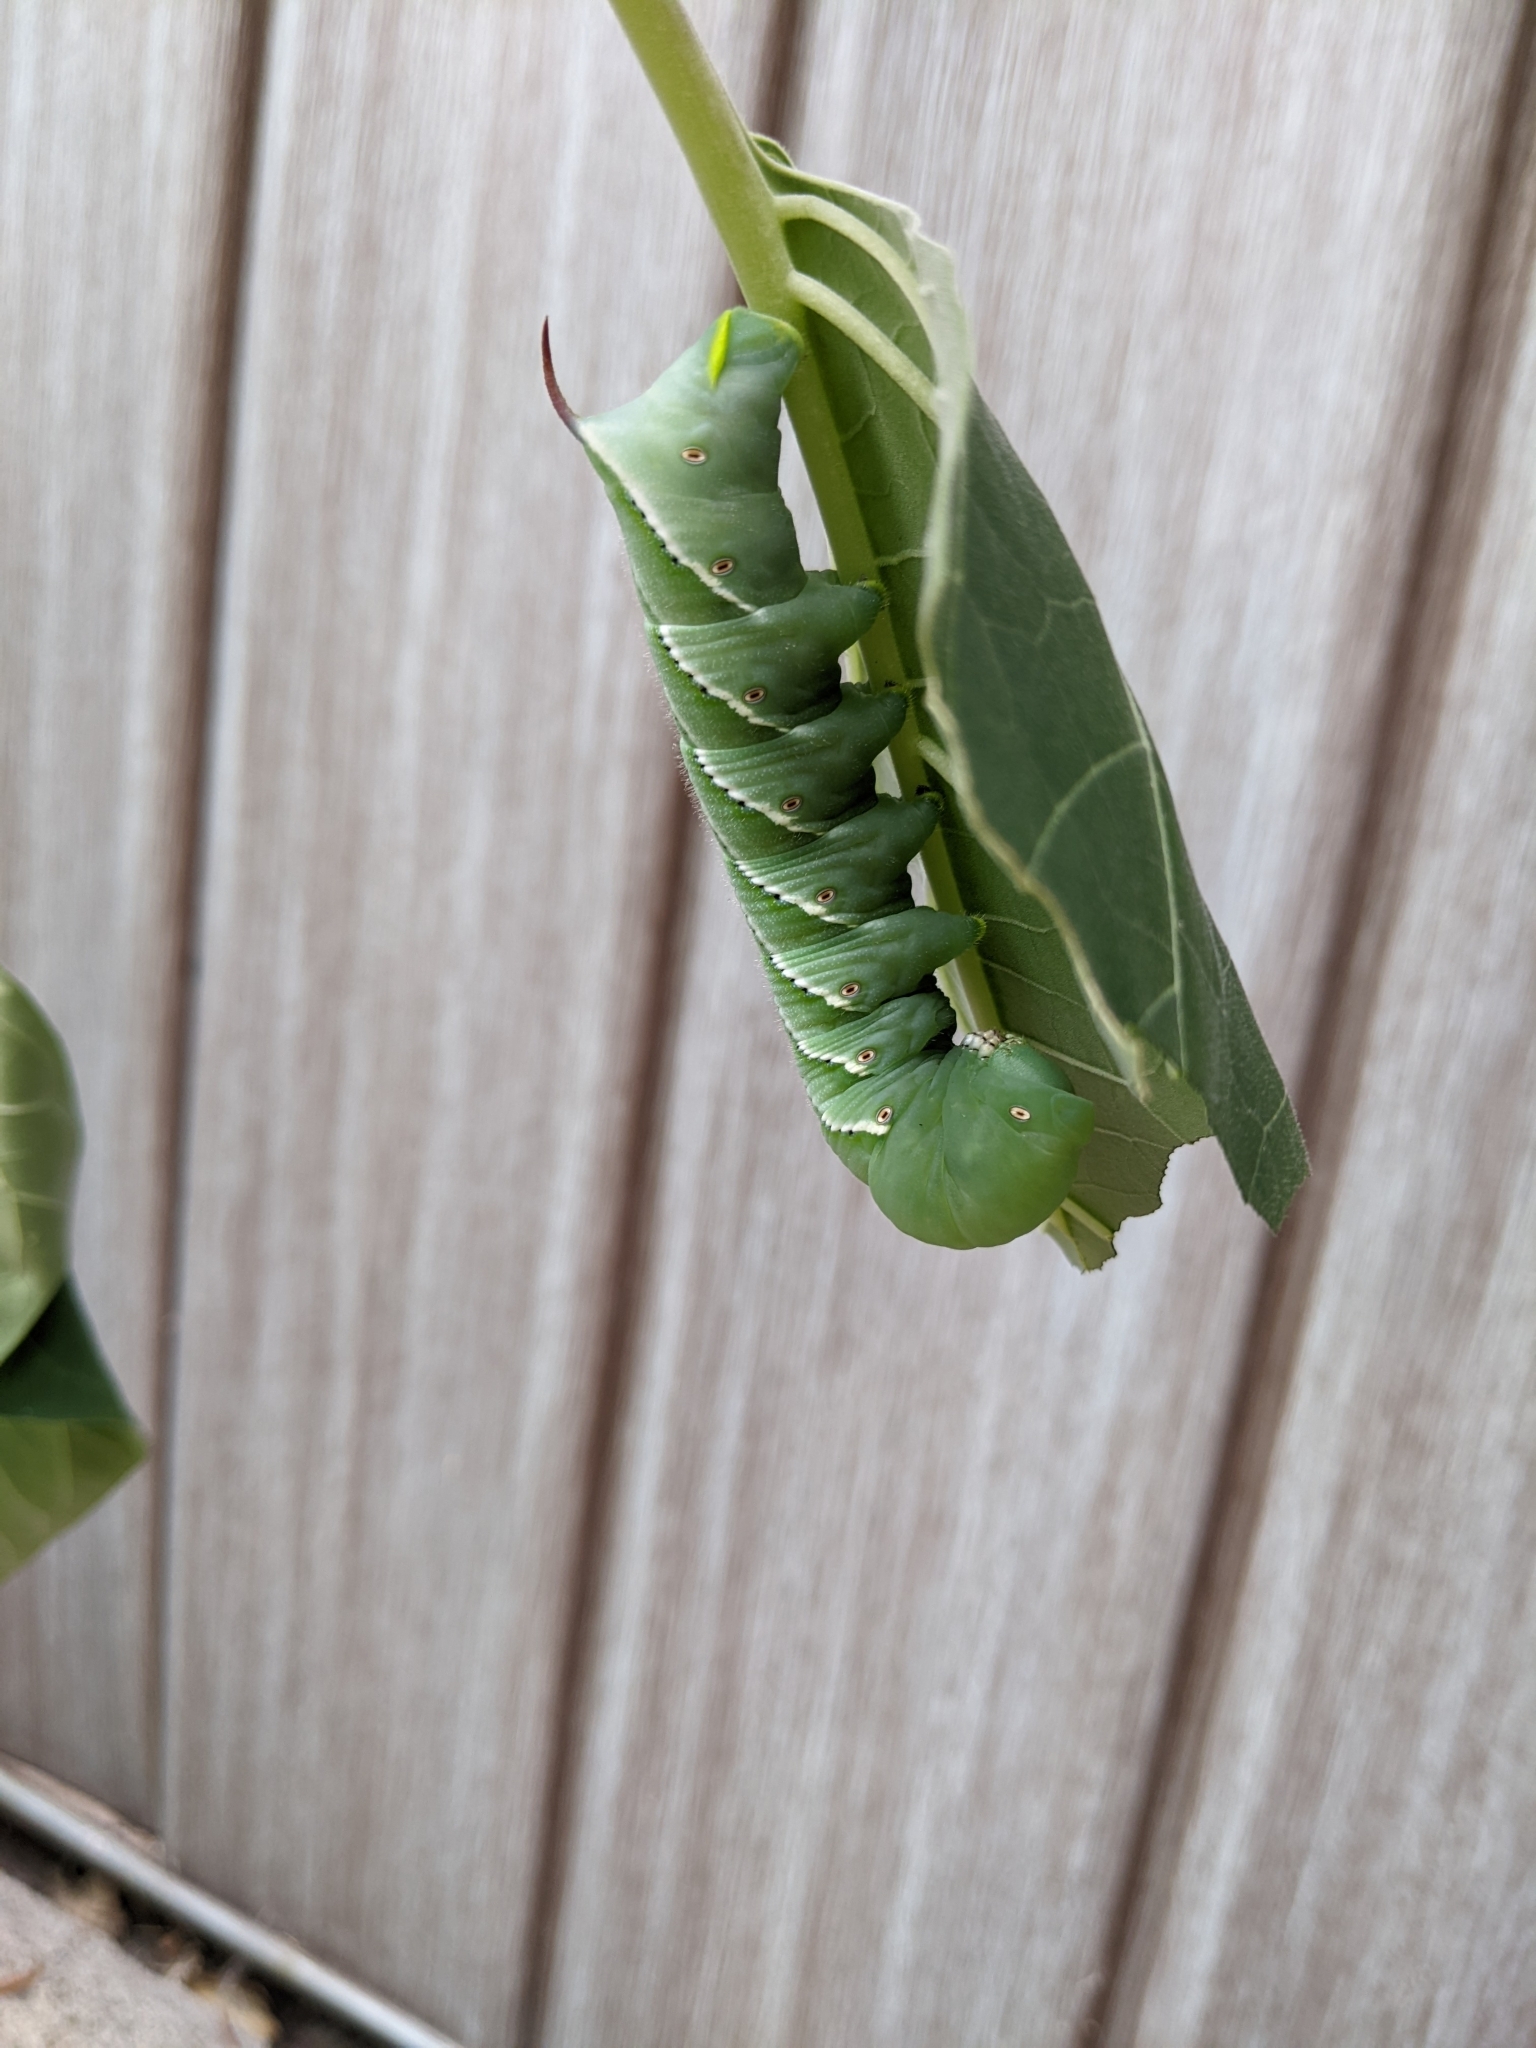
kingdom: Animalia
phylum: Arthropoda
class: Insecta
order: Lepidoptera
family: Sphingidae
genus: Manduca
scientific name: Manduca sexta
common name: Carolina sphinx
